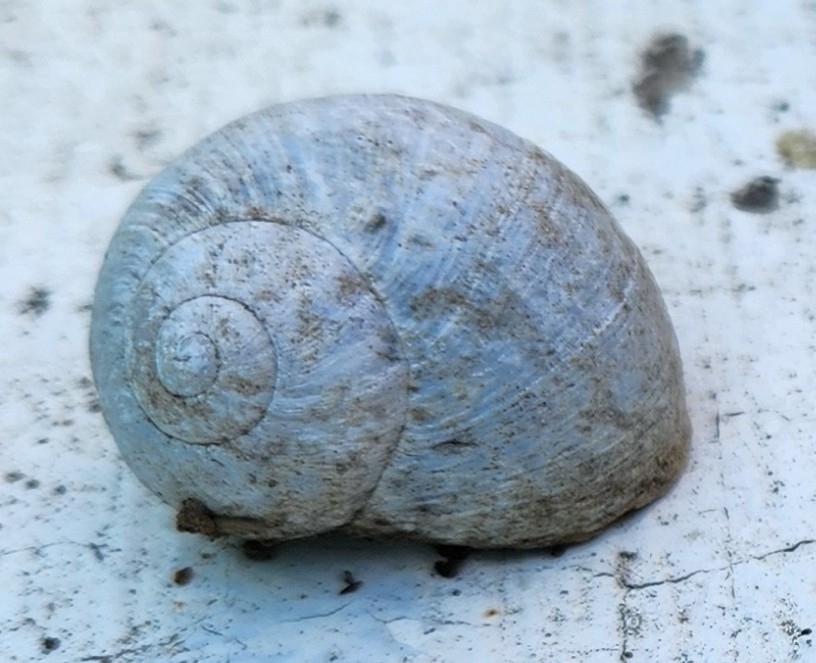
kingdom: Animalia
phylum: Mollusca
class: Gastropoda
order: Stylommatophora
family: Helicidae
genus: Cornu
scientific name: Cornu aspersum
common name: Brown garden snail
